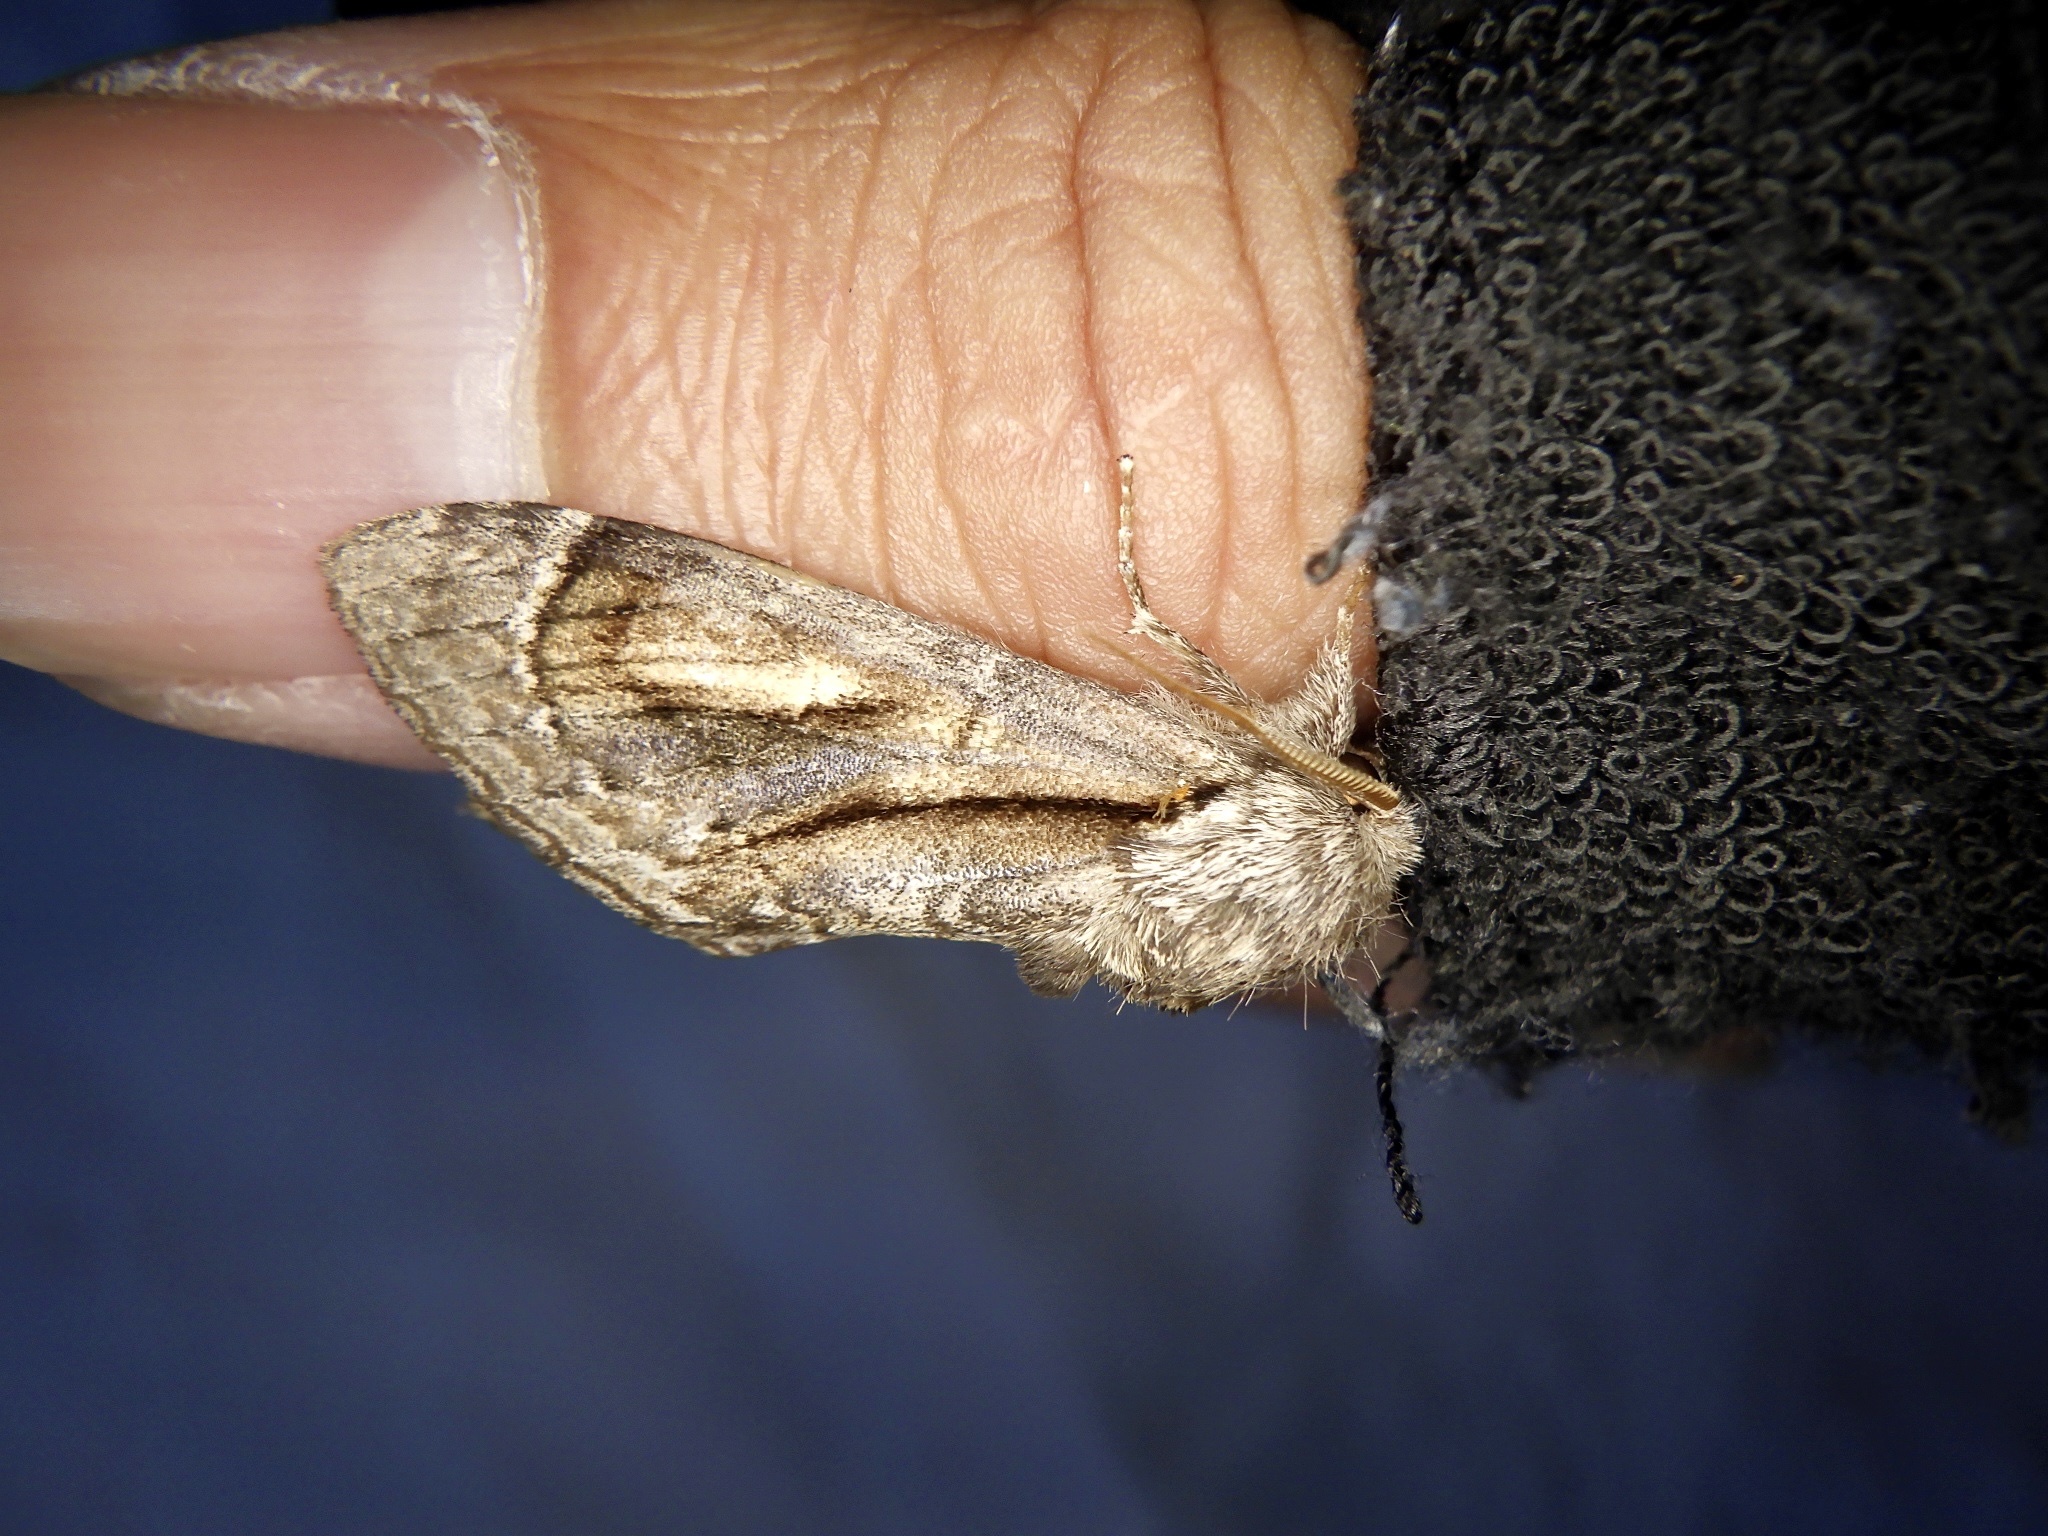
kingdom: Animalia
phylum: Arthropoda
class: Insecta
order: Lepidoptera
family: Notodontidae
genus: Fentonia
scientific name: Fentonia ocypete
